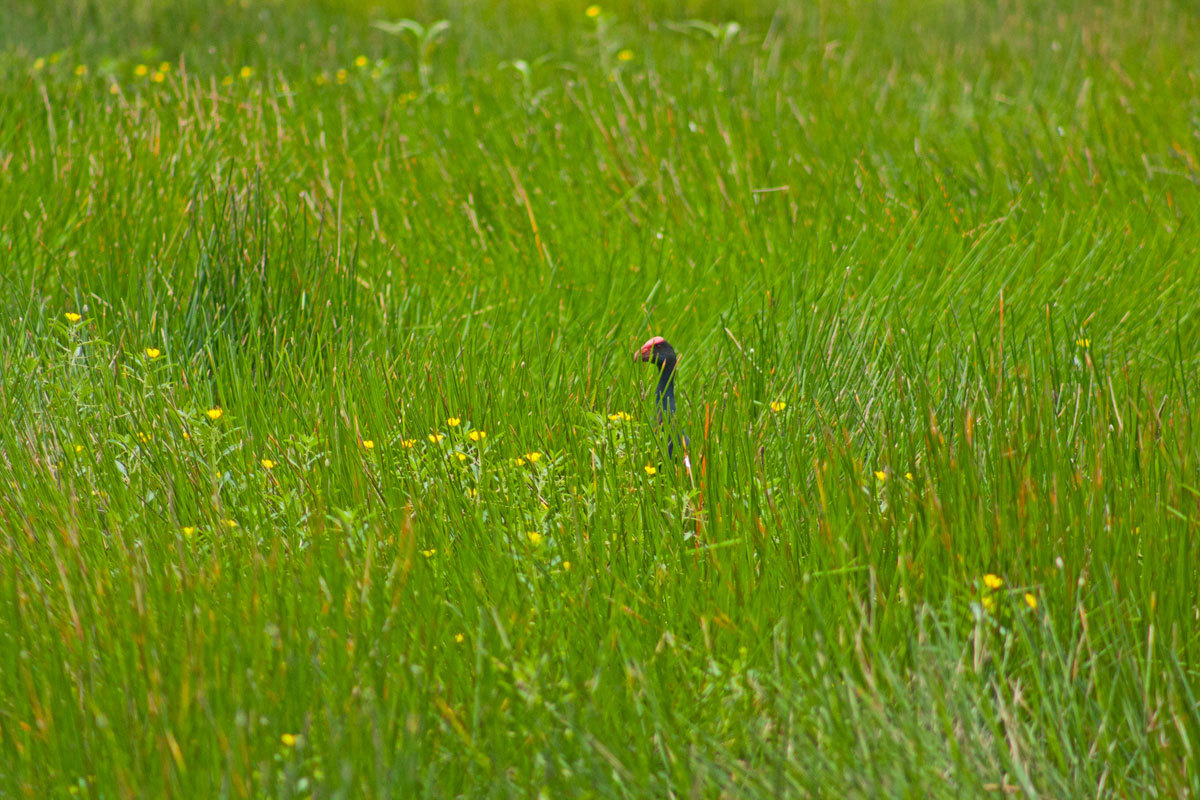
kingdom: Animalia
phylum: Chordata
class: Aves
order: Gruiformes
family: Rallidae
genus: Porphyrio
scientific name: Porphyrio melanotus
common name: Australasian swamphen
